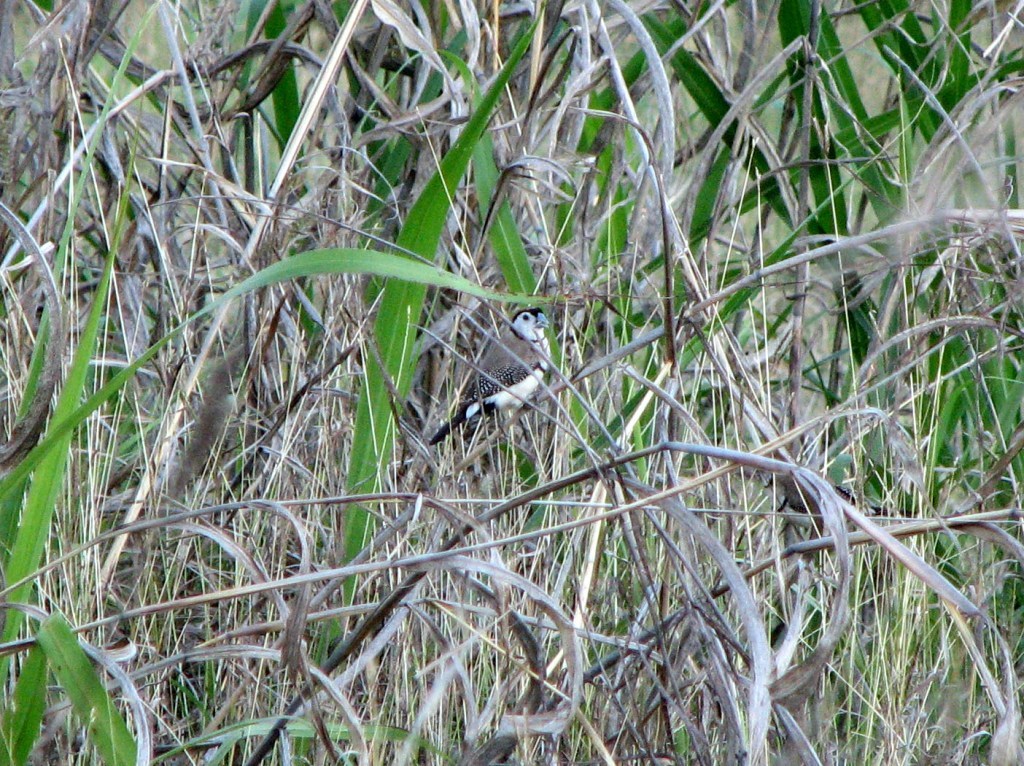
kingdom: Animalia
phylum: Chordata
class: Aves
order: Passeriformes
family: Estrildidae
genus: Taeniopygia
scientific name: Taeniopygia bichenovii
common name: Double-barred finch
